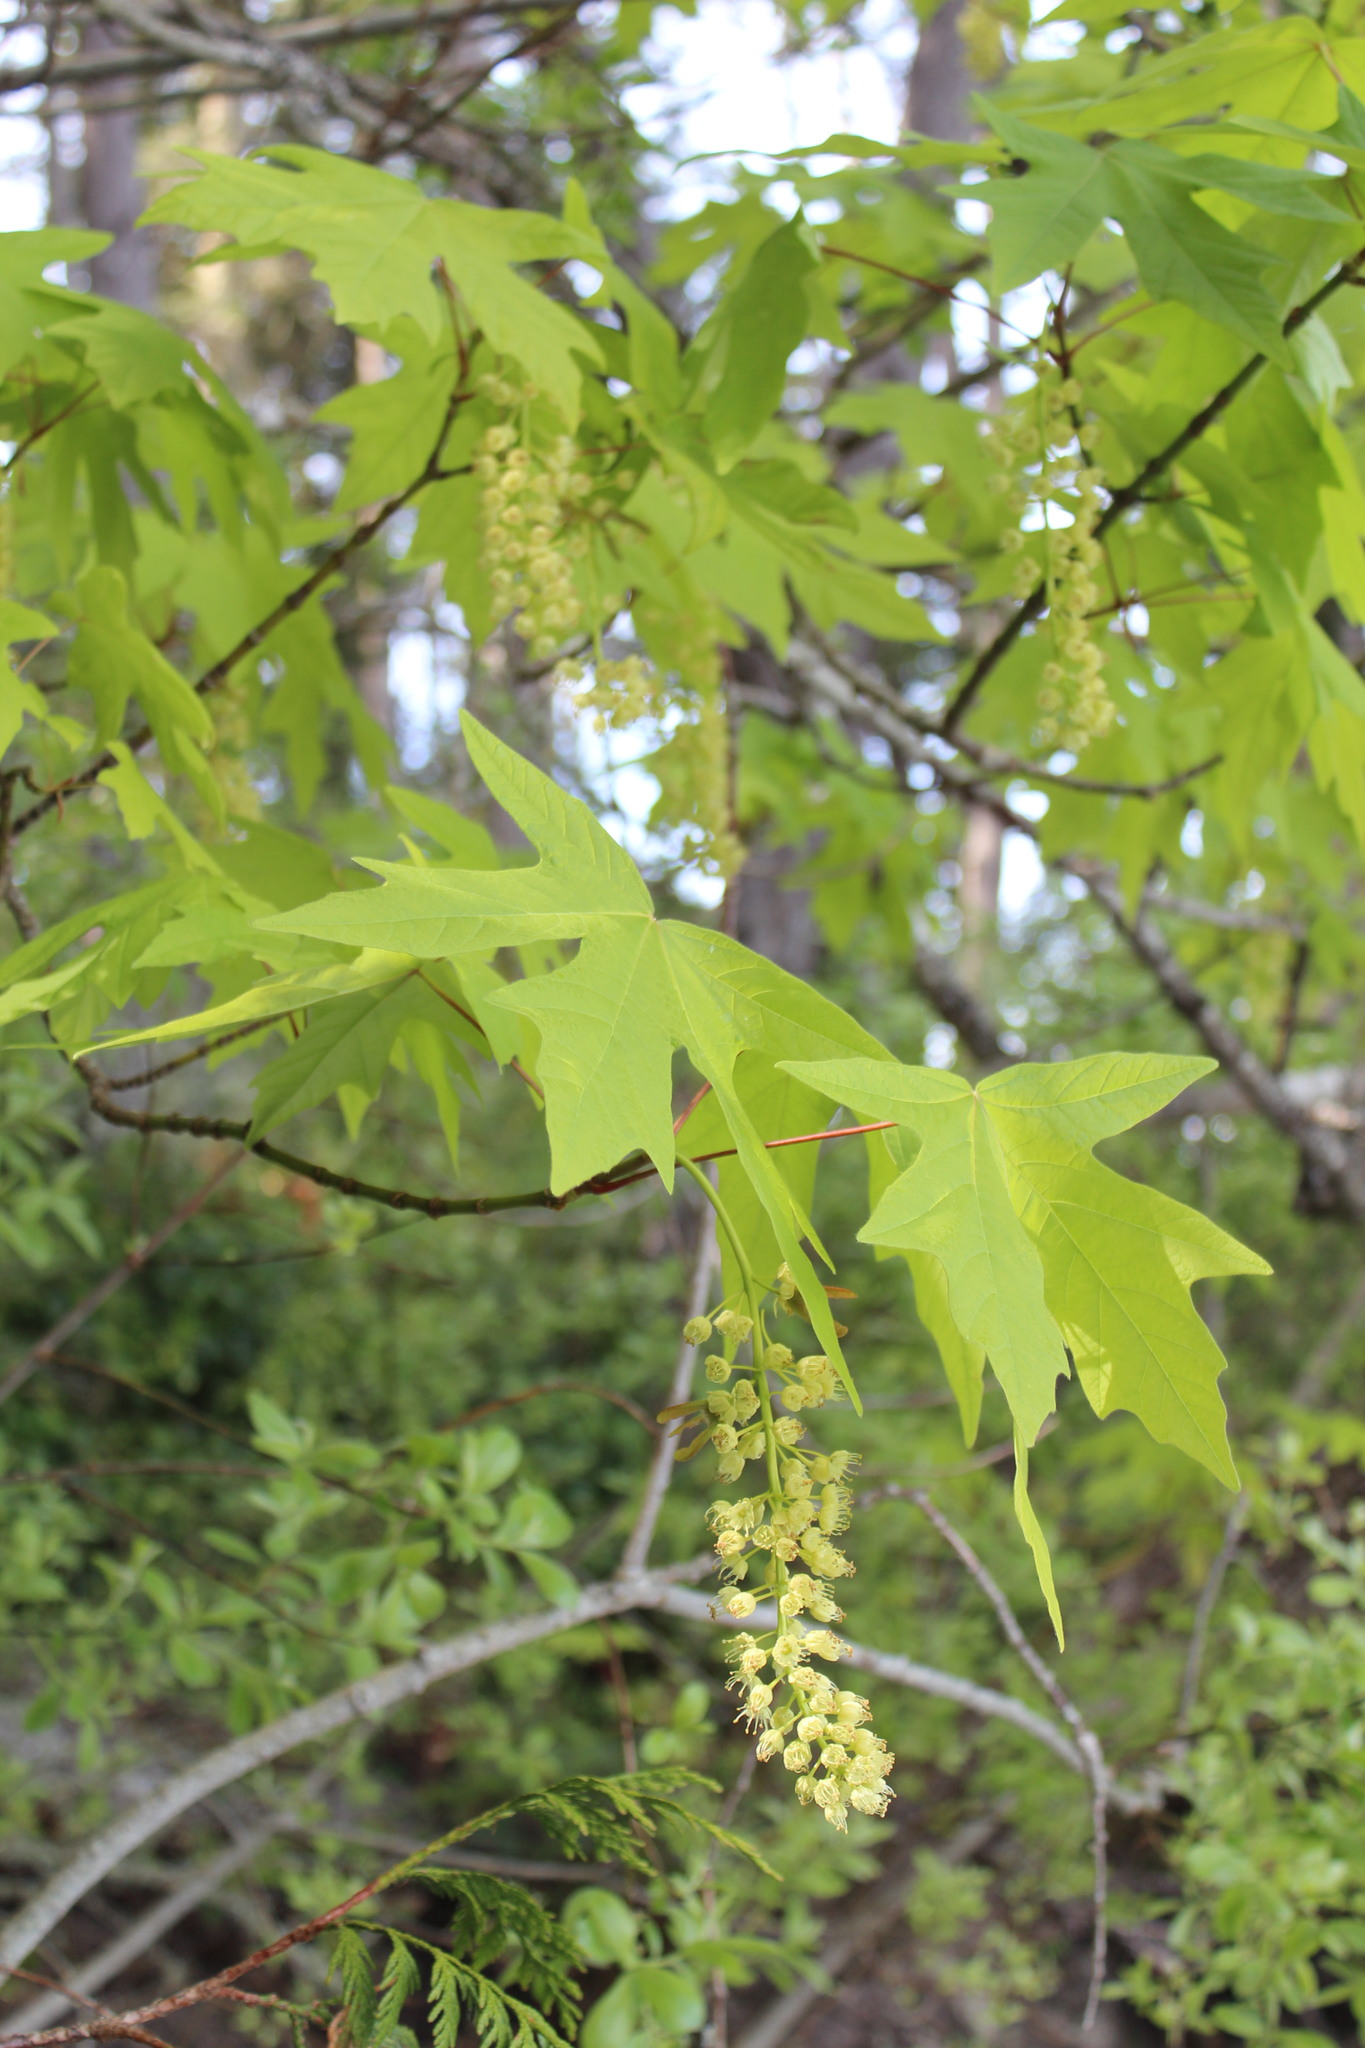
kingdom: Plantae
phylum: Tracheophyta
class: Magnoliopsida
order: Sapindales
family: Sapindaceae
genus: Acer
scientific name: Acer macrophyllum
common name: Oregon maple
